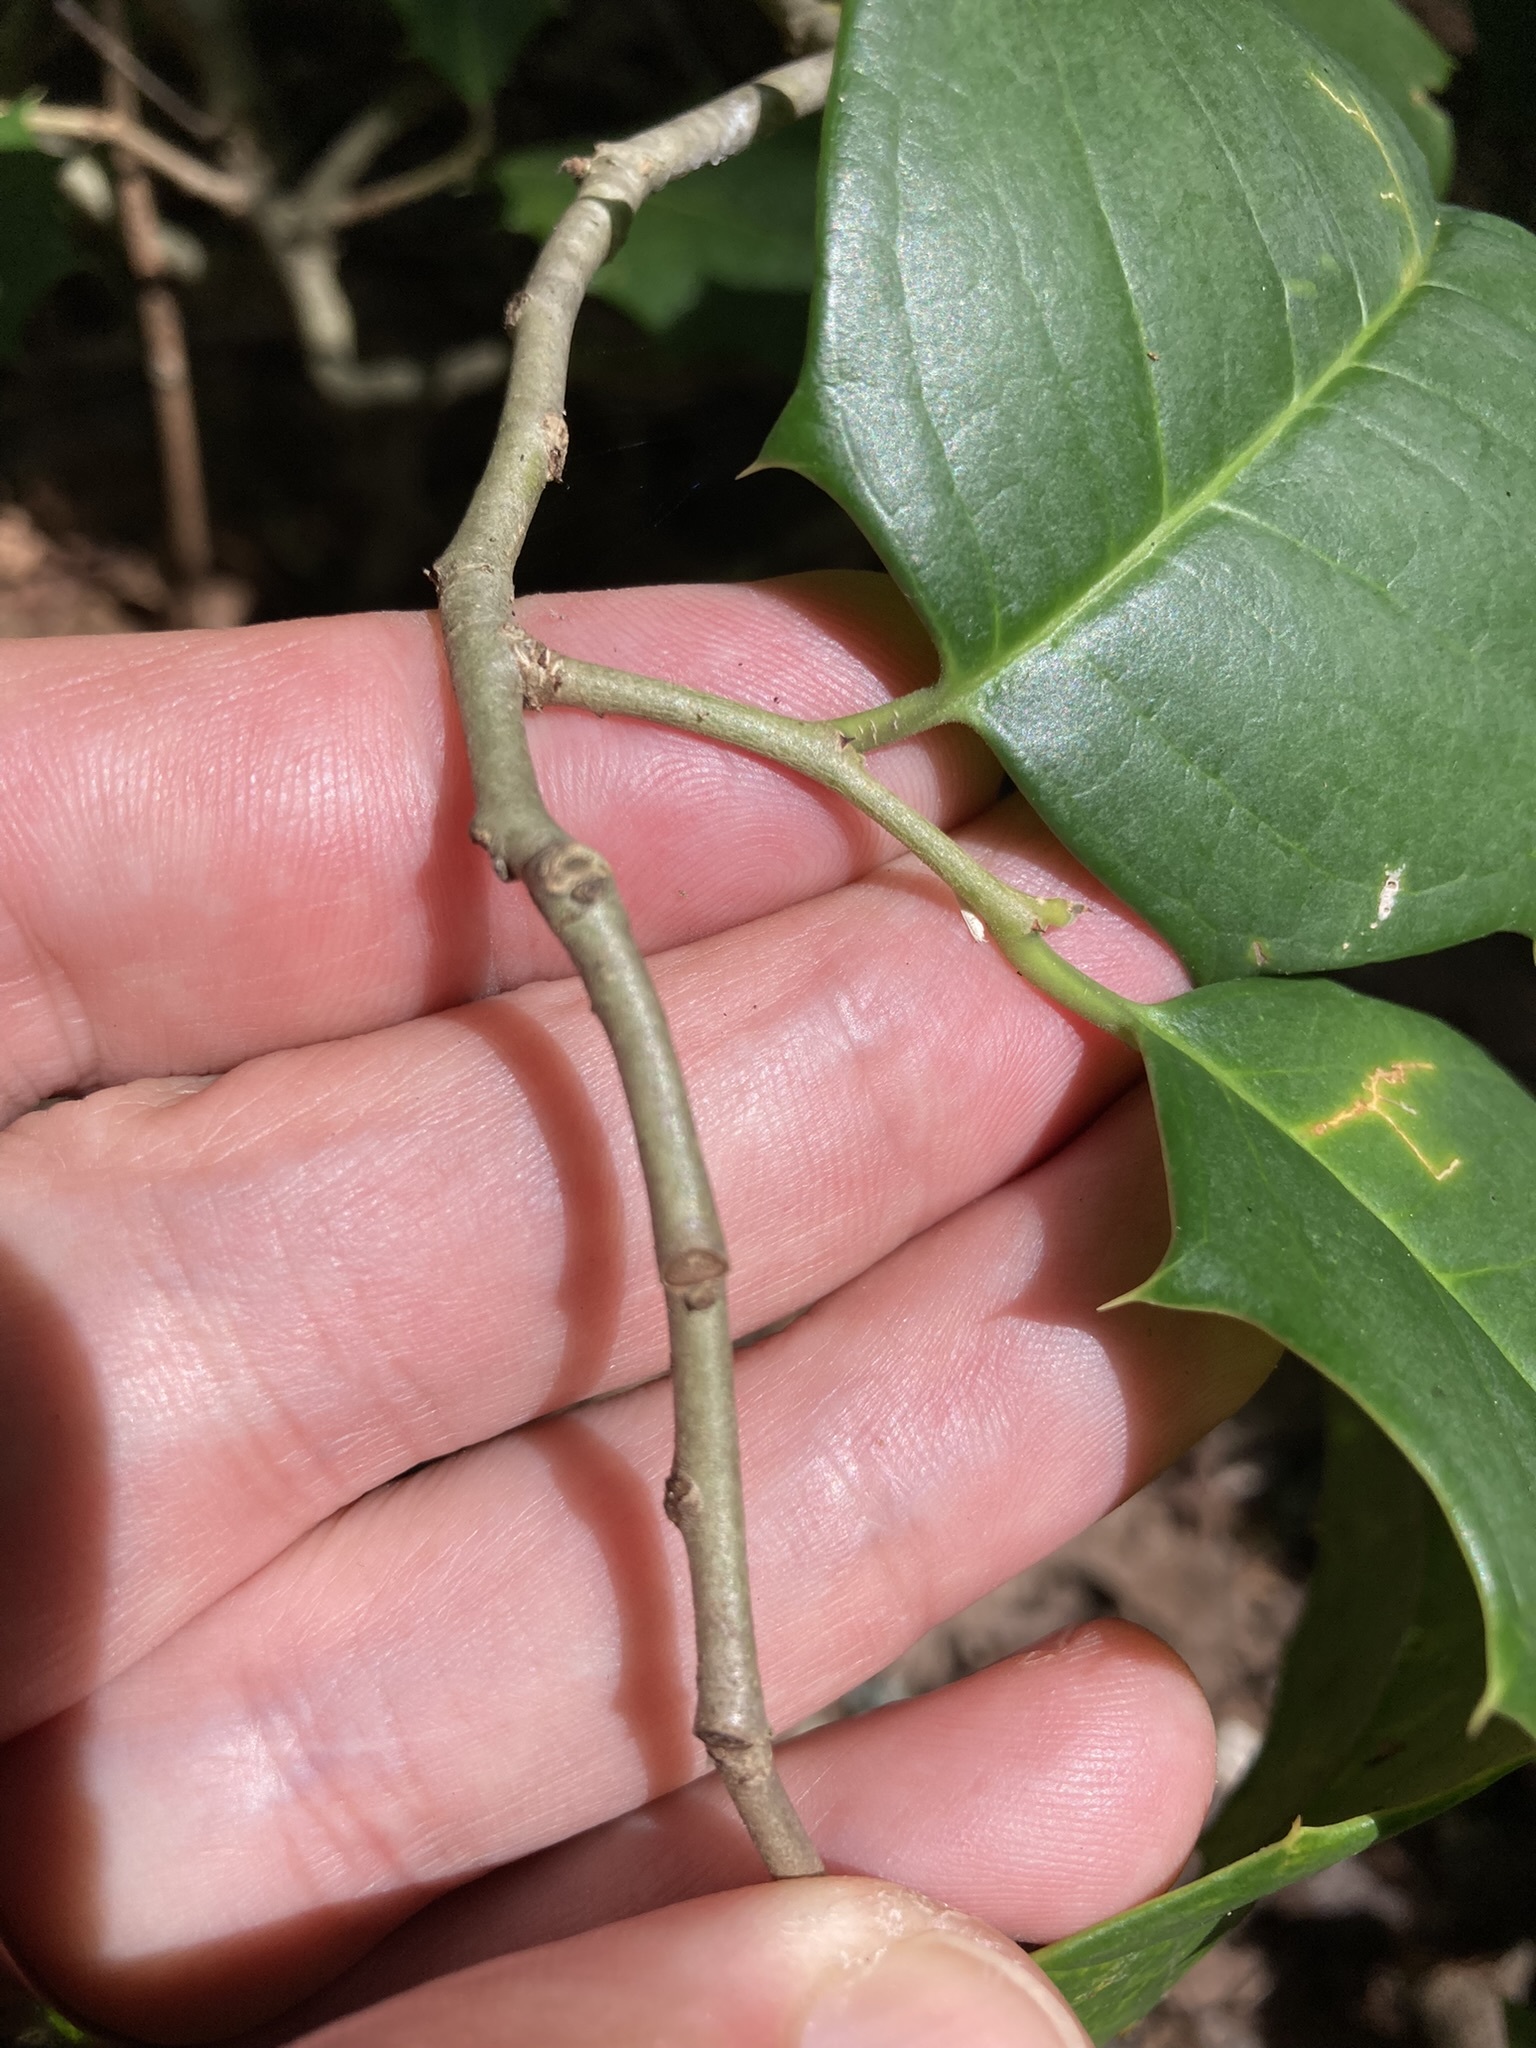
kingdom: Plantae
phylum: Tracheophyta
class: Magnoliopsida
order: Aquifoliales
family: Aquifoliaceae
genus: Ilex
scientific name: Ilex opaca
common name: American holly
